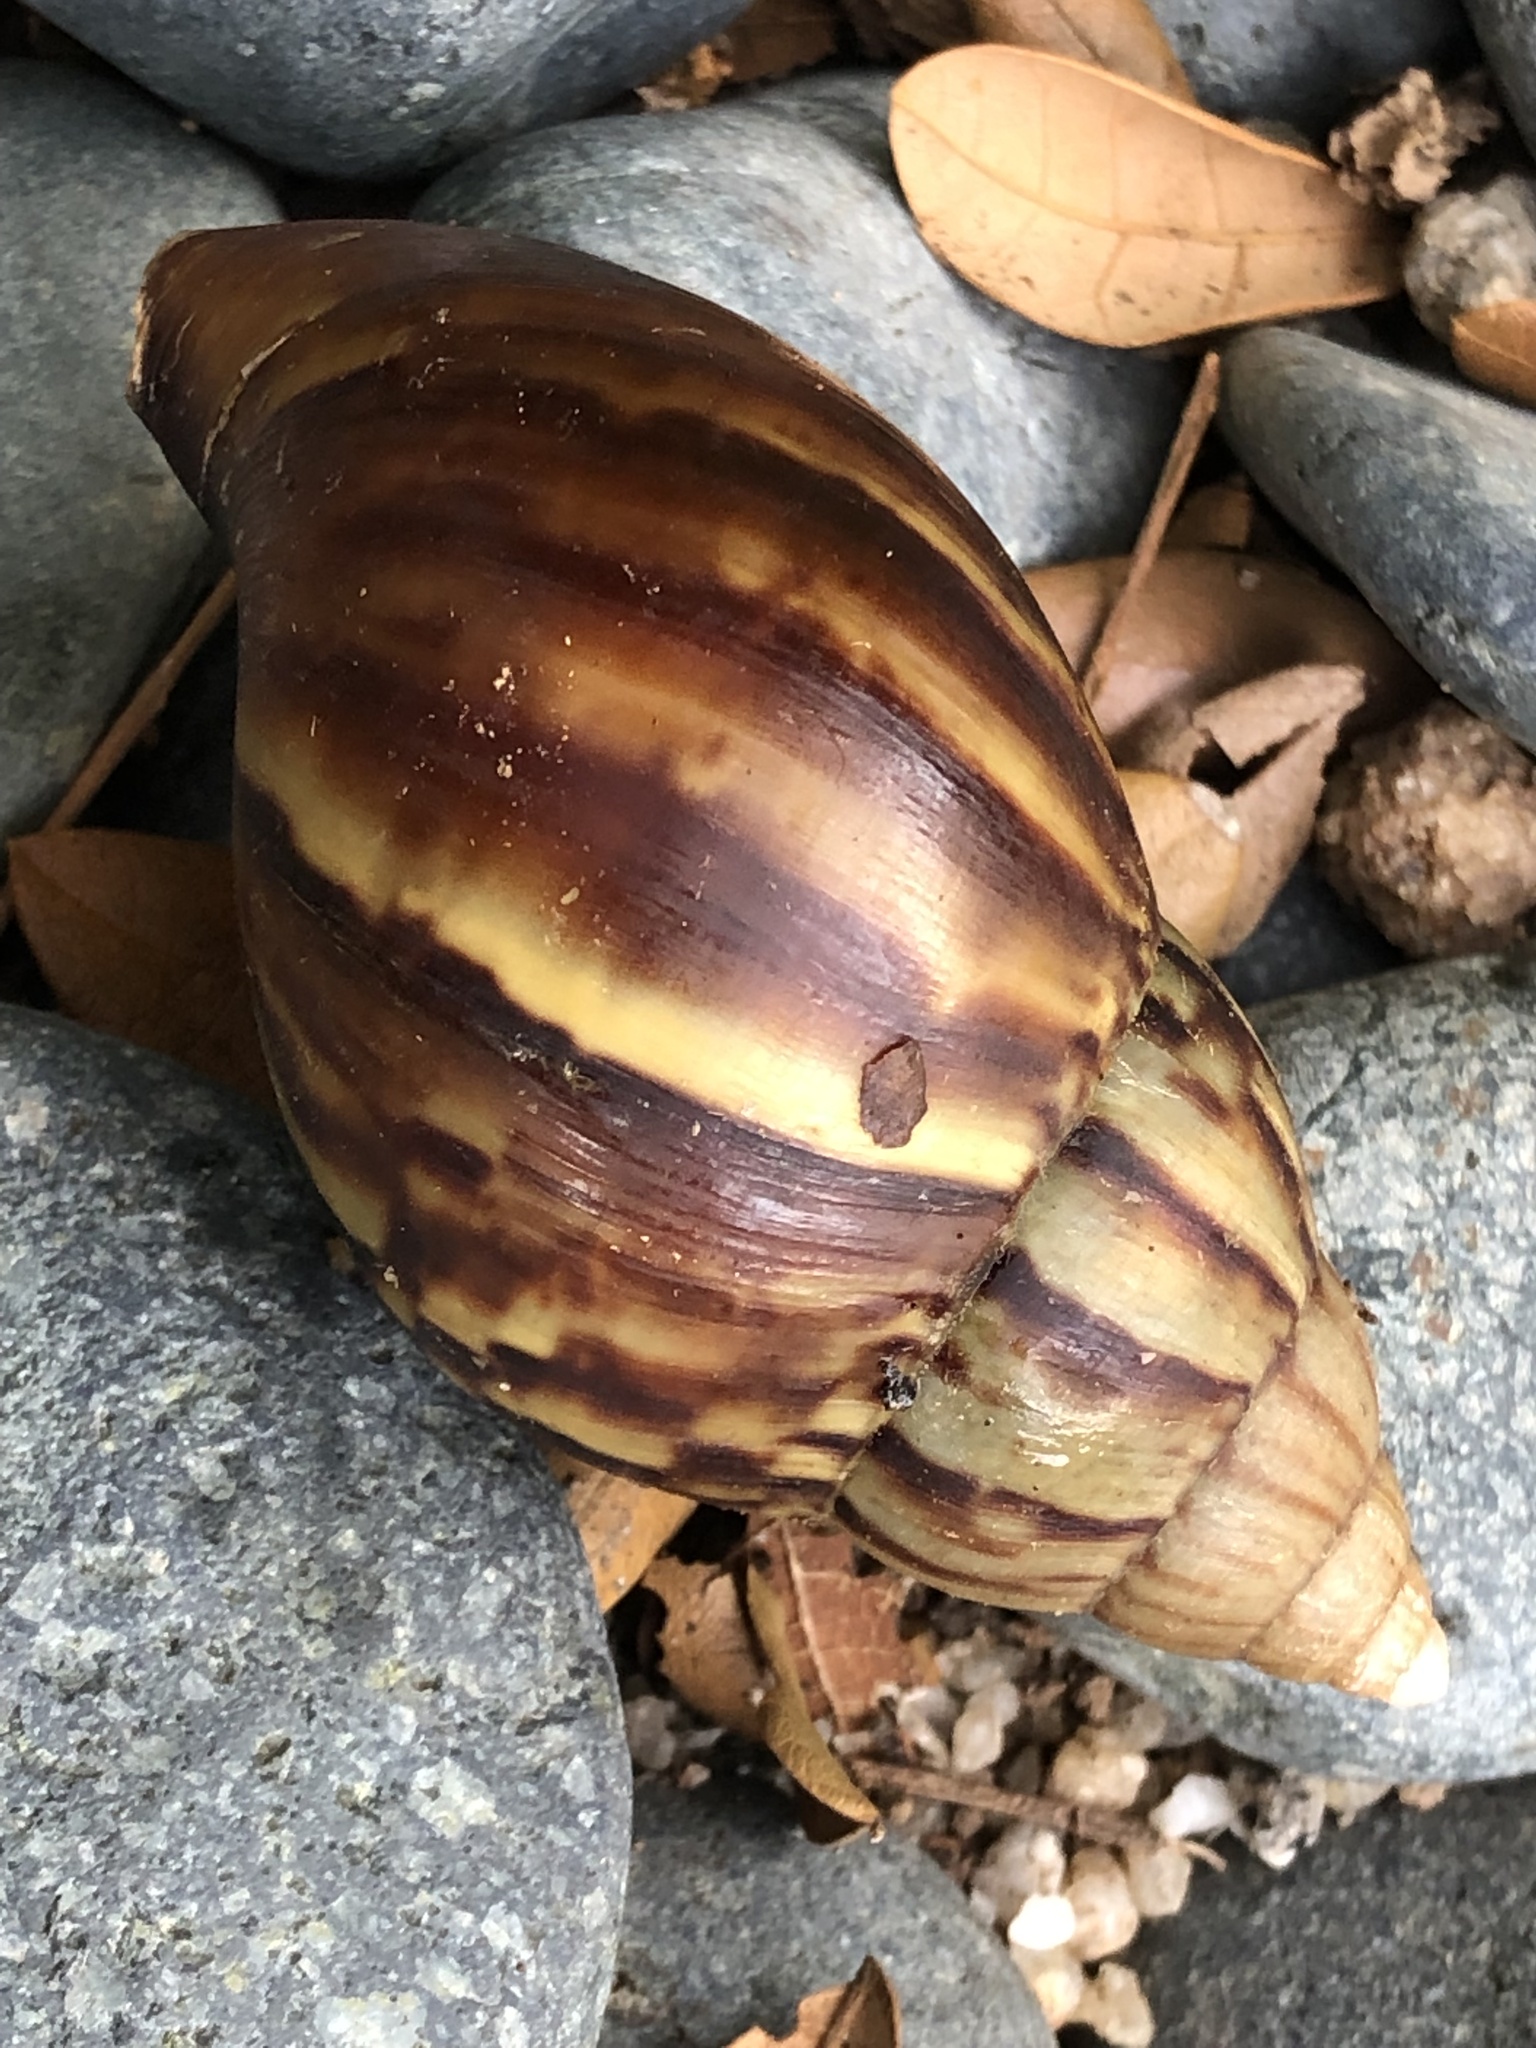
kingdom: Animalia
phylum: Mollusca
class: Gastropoda
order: Stylommatophora
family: Achatinidae
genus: Lissachatina
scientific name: Lissachatina fulica
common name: Giant african snail
